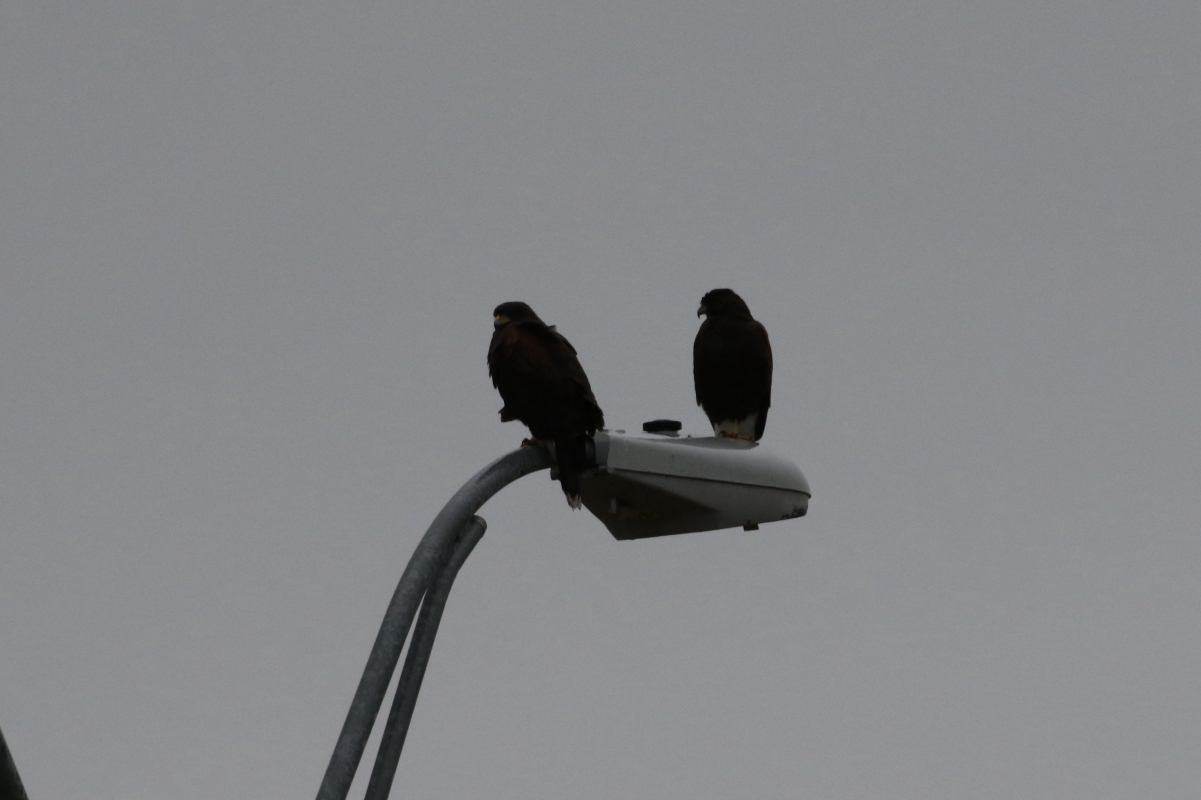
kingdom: Animalia
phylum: Chordata
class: Aves
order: Accipitriformes
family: Accipitridae
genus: Parabuteo
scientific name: Parabuteo unicinctus
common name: Harris's hawk
